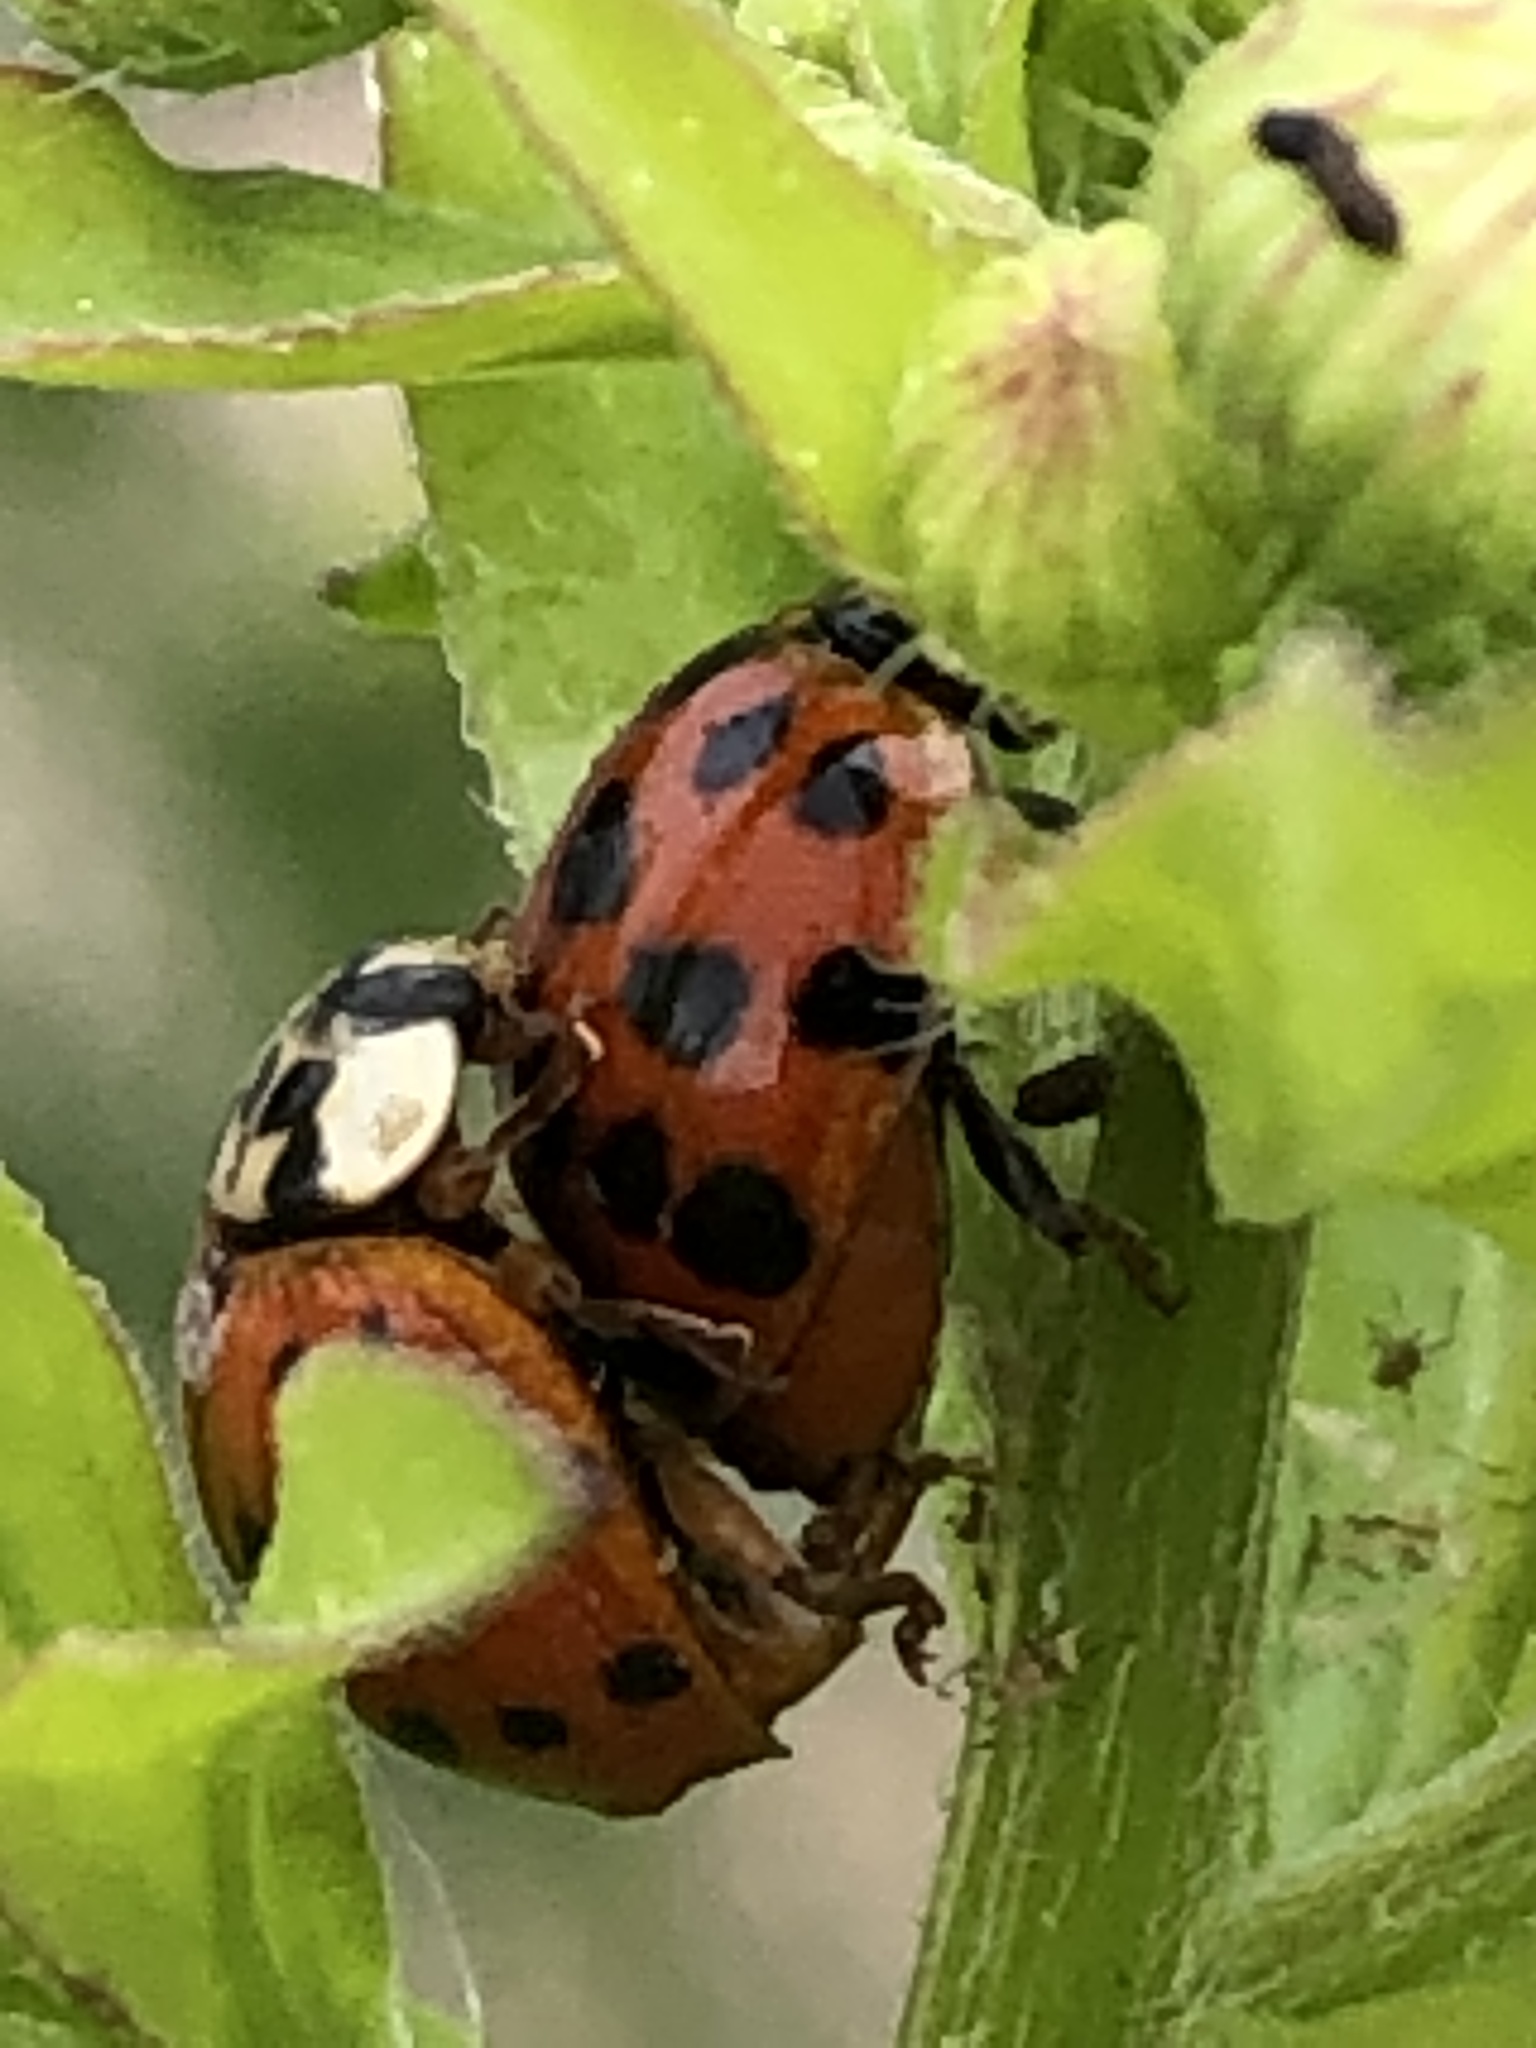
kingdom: Animalia
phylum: Arthropoda
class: Insecta
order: Coleoptera
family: Coccinellidae
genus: Harmonia
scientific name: Harmonia axyridis
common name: Harlequin ladybird
